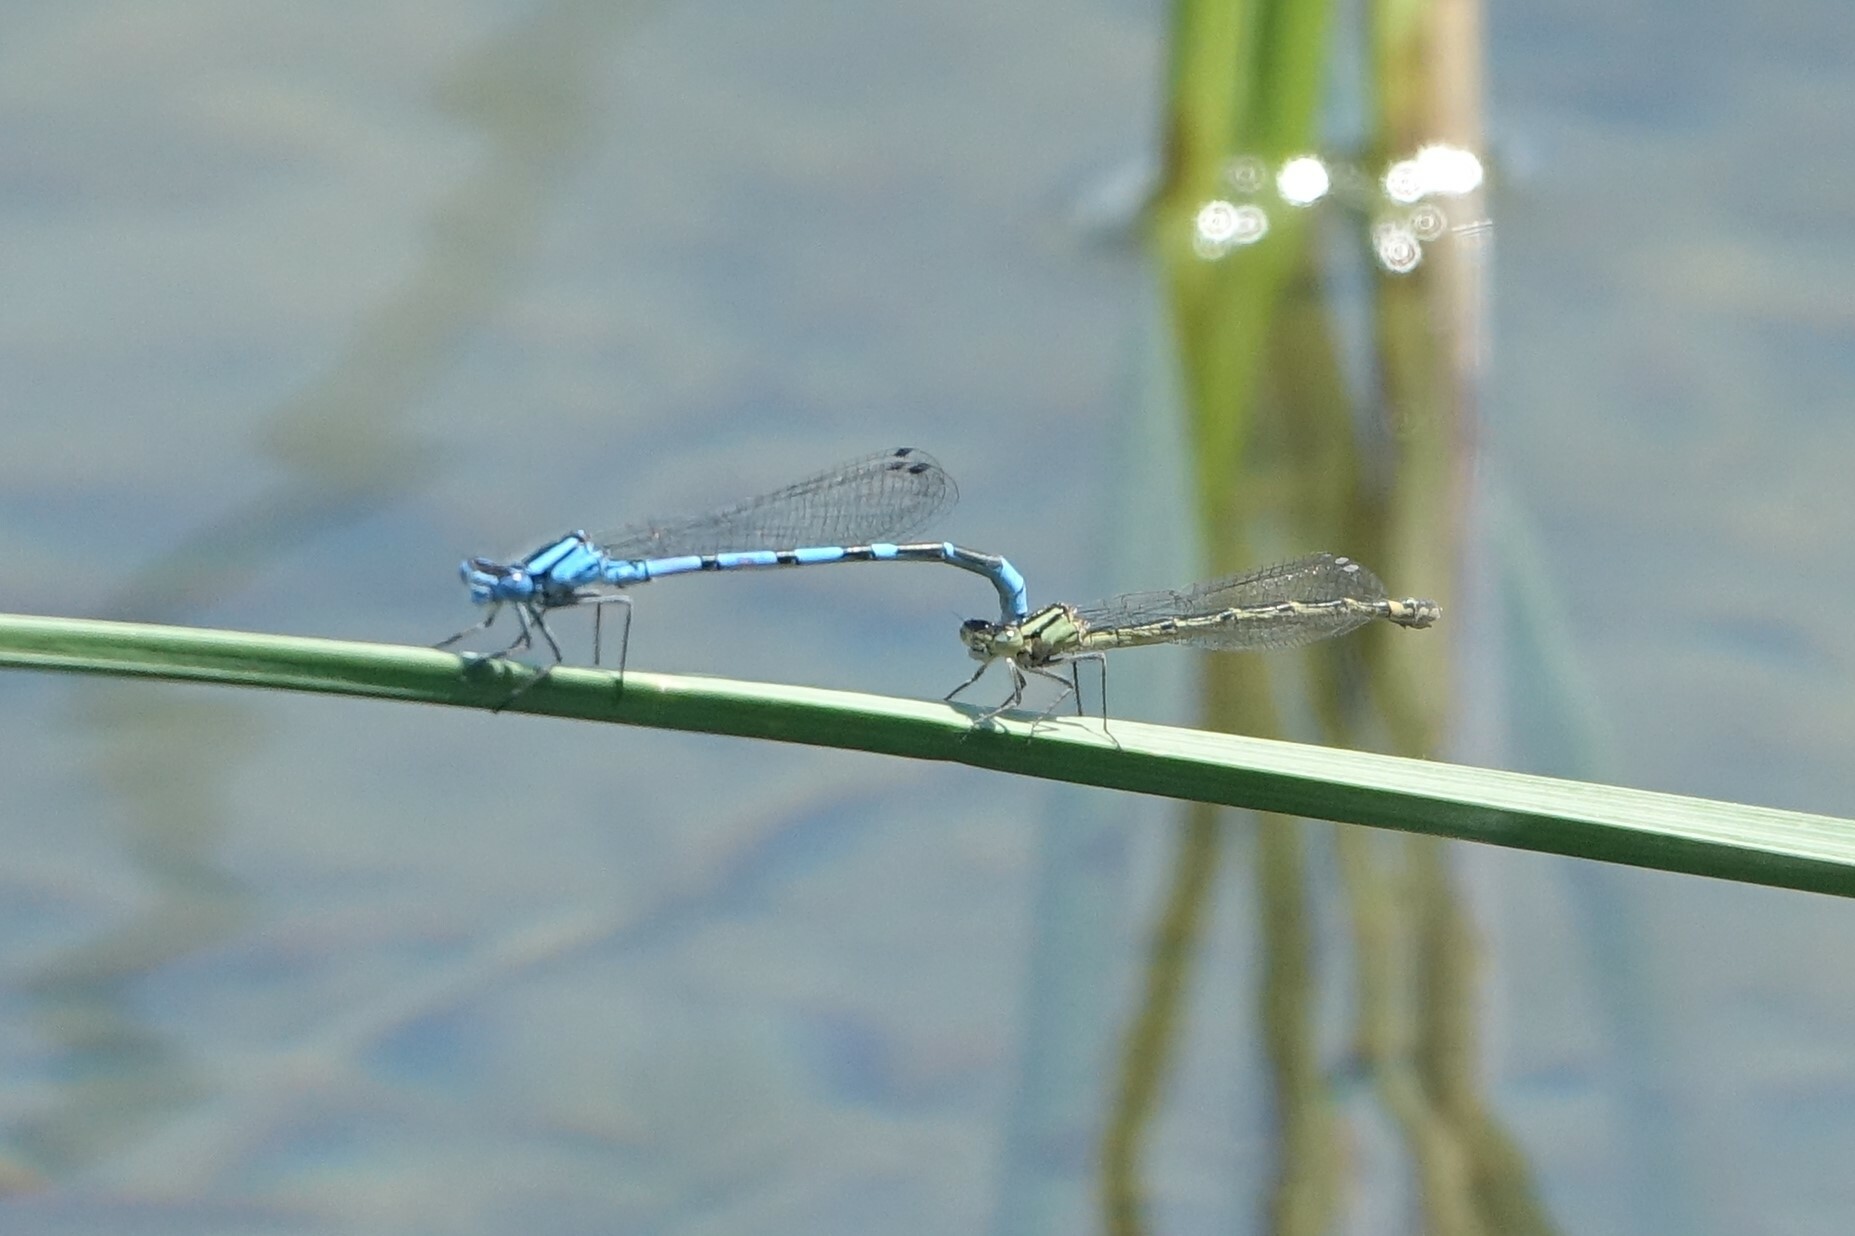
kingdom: Animalia
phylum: Arthropoda
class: Insecta
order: Odonata
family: Coenagrionidae
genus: Enallagma
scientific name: Enallagma cyathigerum
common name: Common blue damselfly
